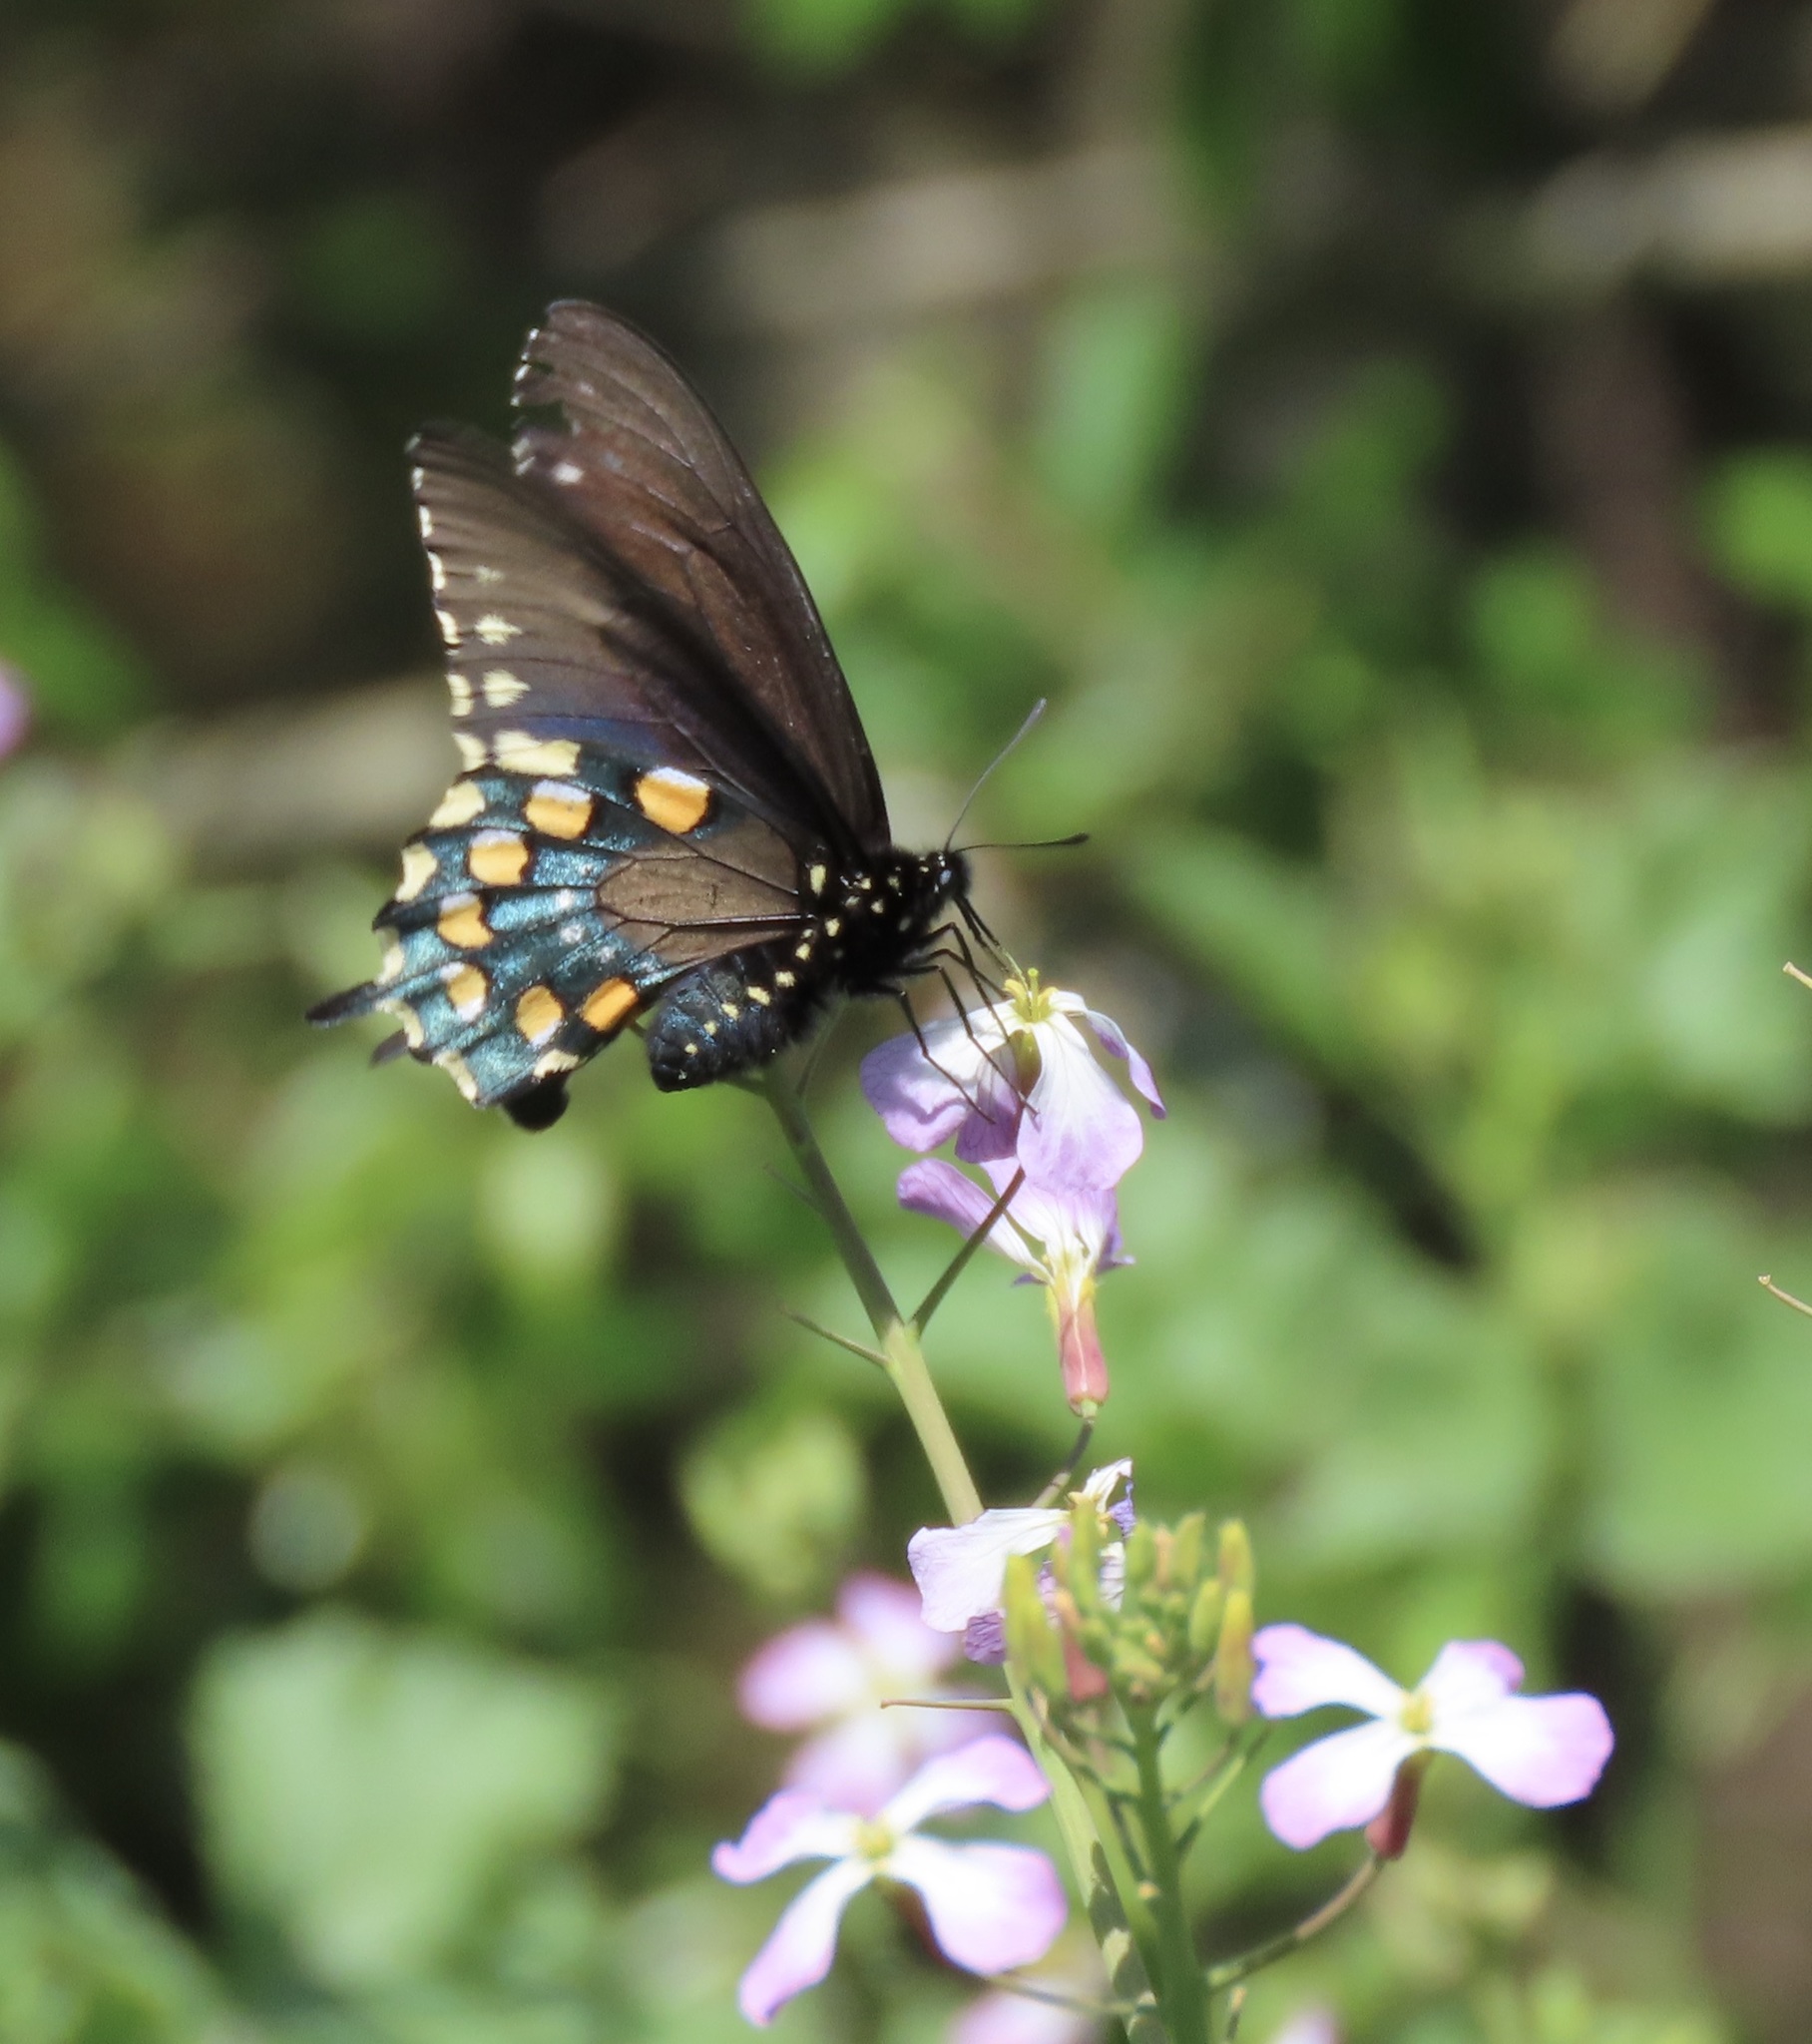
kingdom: Animalia
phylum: Arthropoda
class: Insecta
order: Lepidoptera
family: Papilionidae
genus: Battus
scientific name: Battus philenor
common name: Pipevine swallowtail
